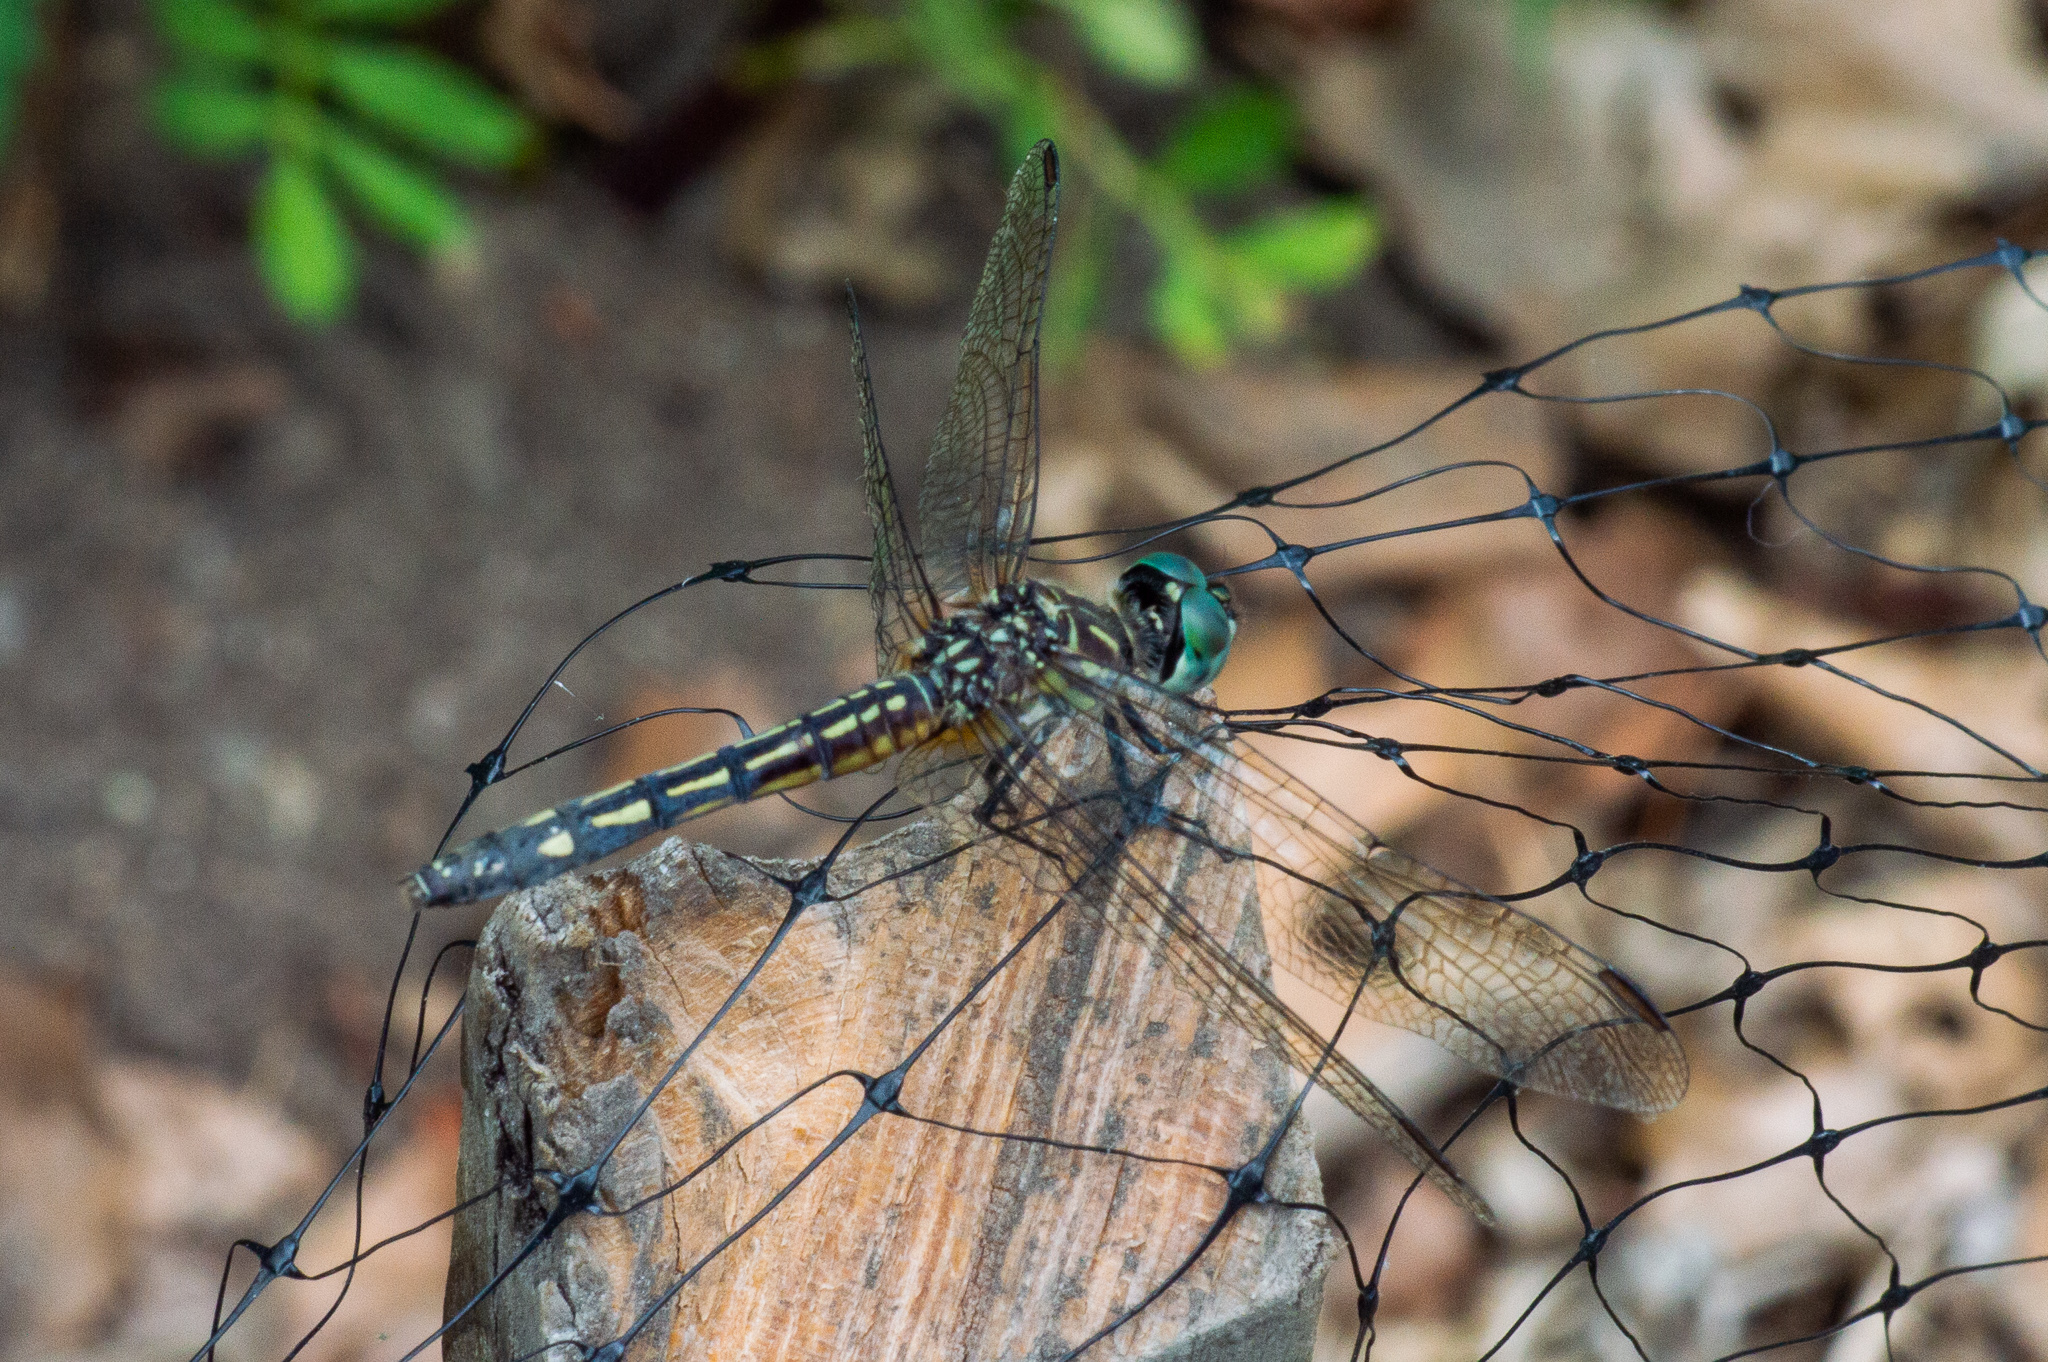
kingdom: Animalia
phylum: Arthropoda
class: Insecta
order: Odonata
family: Libellulidae
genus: Pachydiplax
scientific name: Pachydiplax longipennis
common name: Blue dasher
